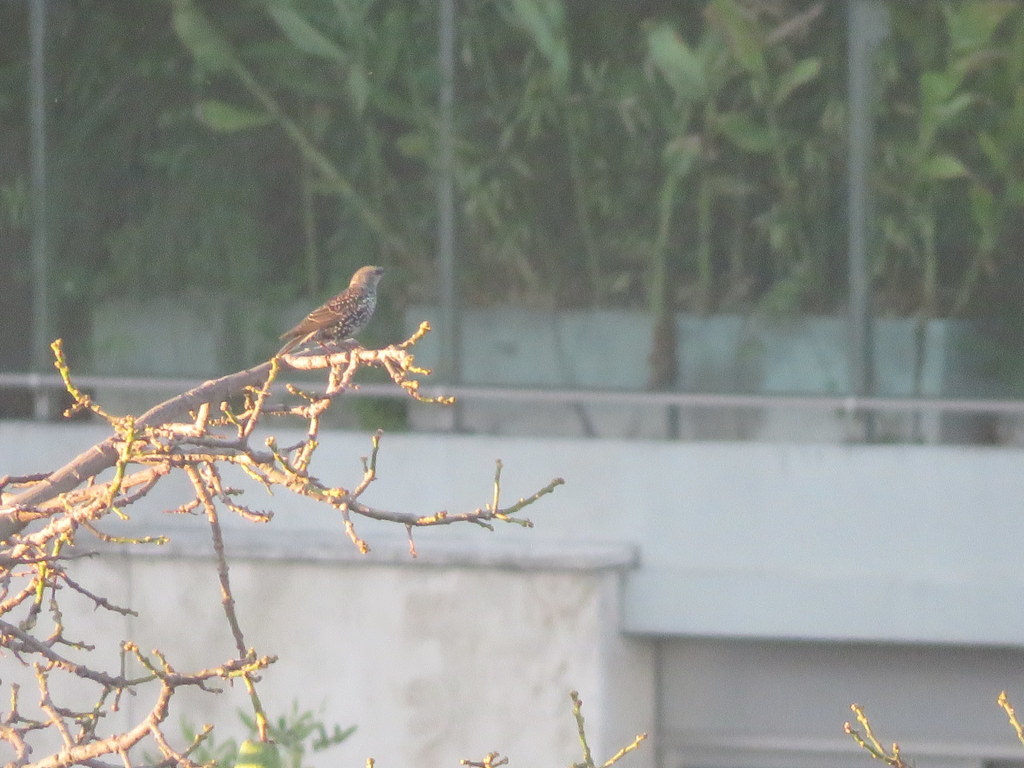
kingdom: Animalia
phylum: Chordata
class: Aves
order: Passeriformes
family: Sturnidae
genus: Sturnus
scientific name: Sturnus vulgaris
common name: Common starling
